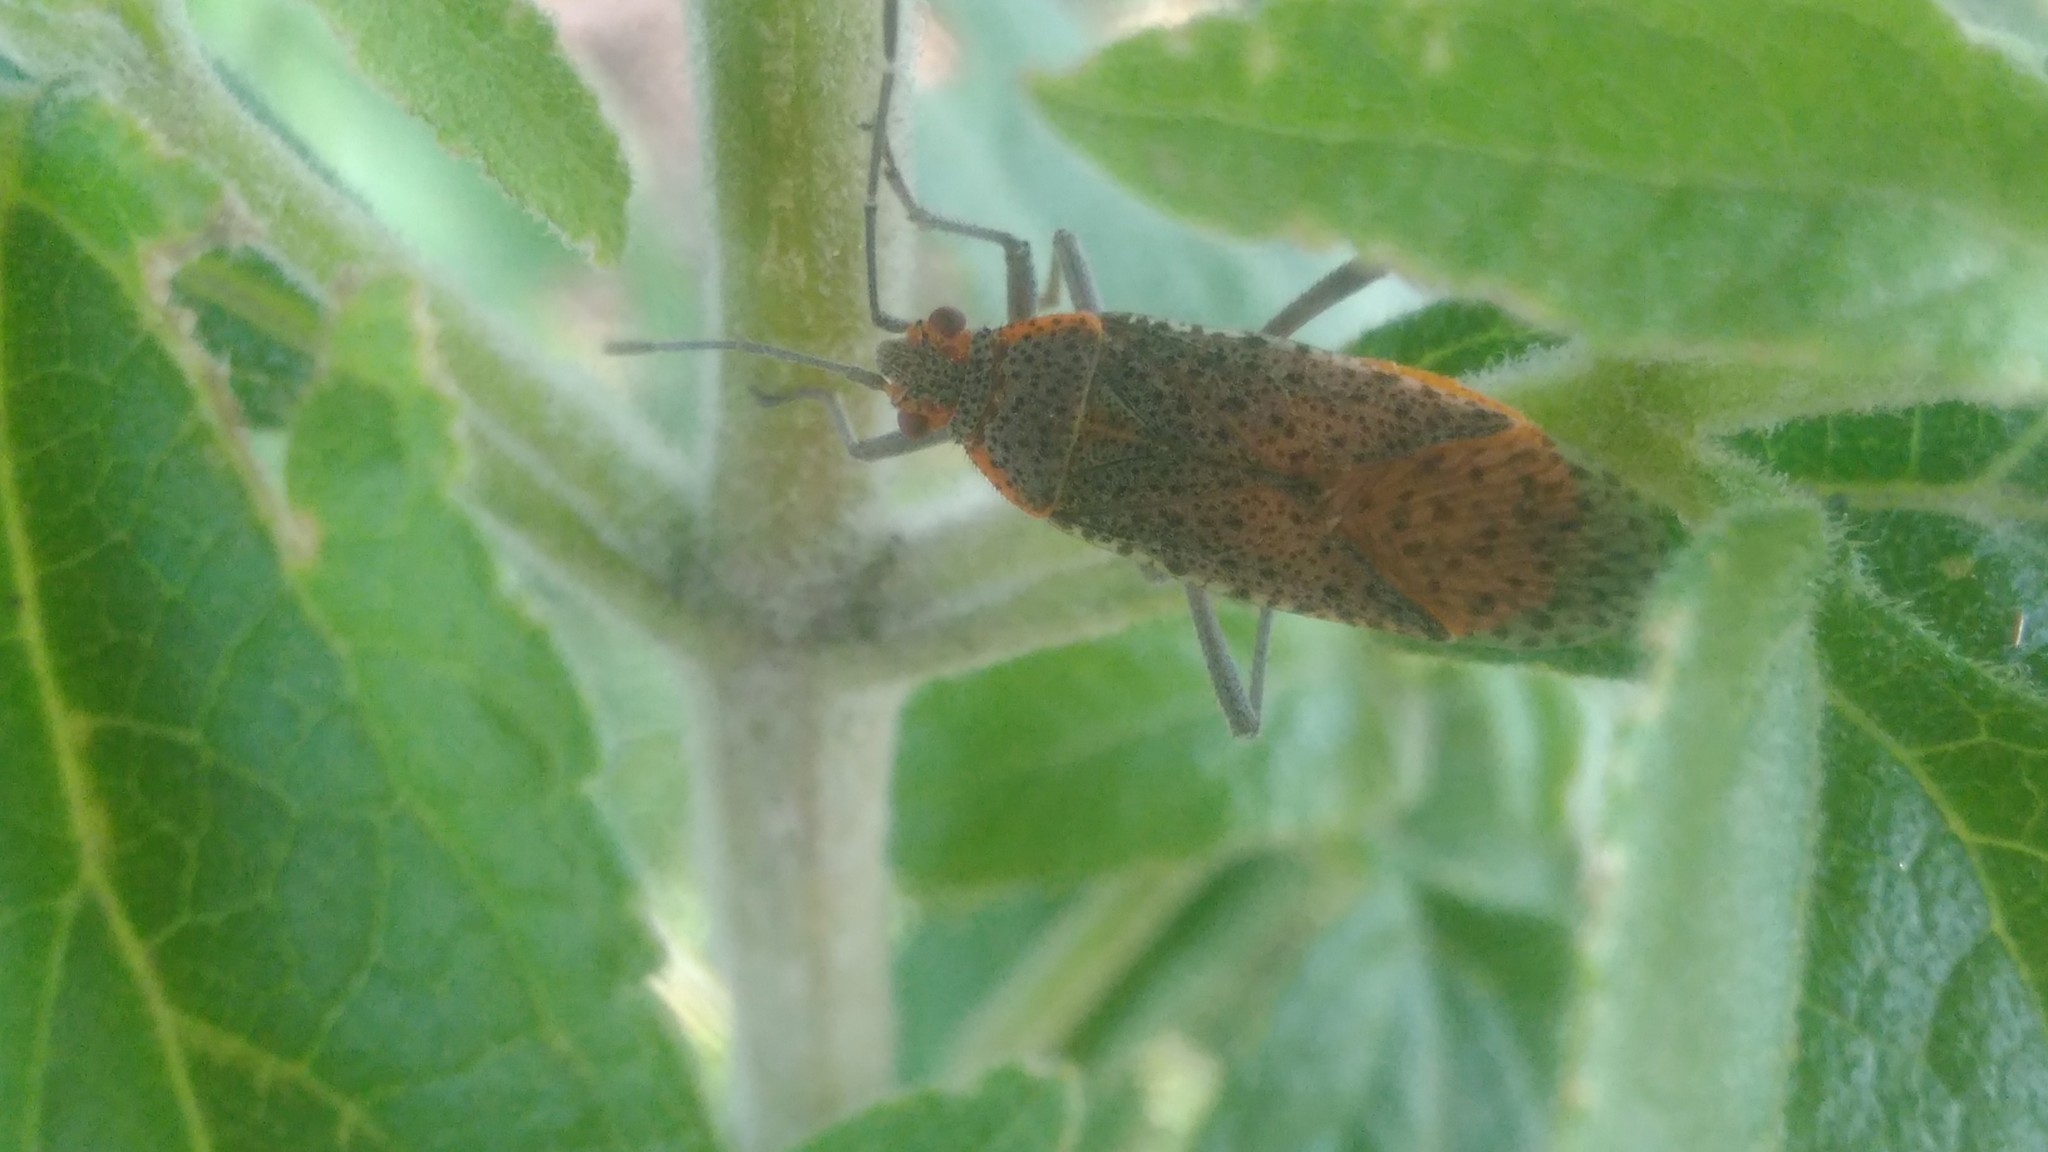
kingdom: Animalia
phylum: Arthropoda
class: Insecta
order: Hemiptera
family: Rhopalidae
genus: Jadera
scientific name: Jadera coturnix
